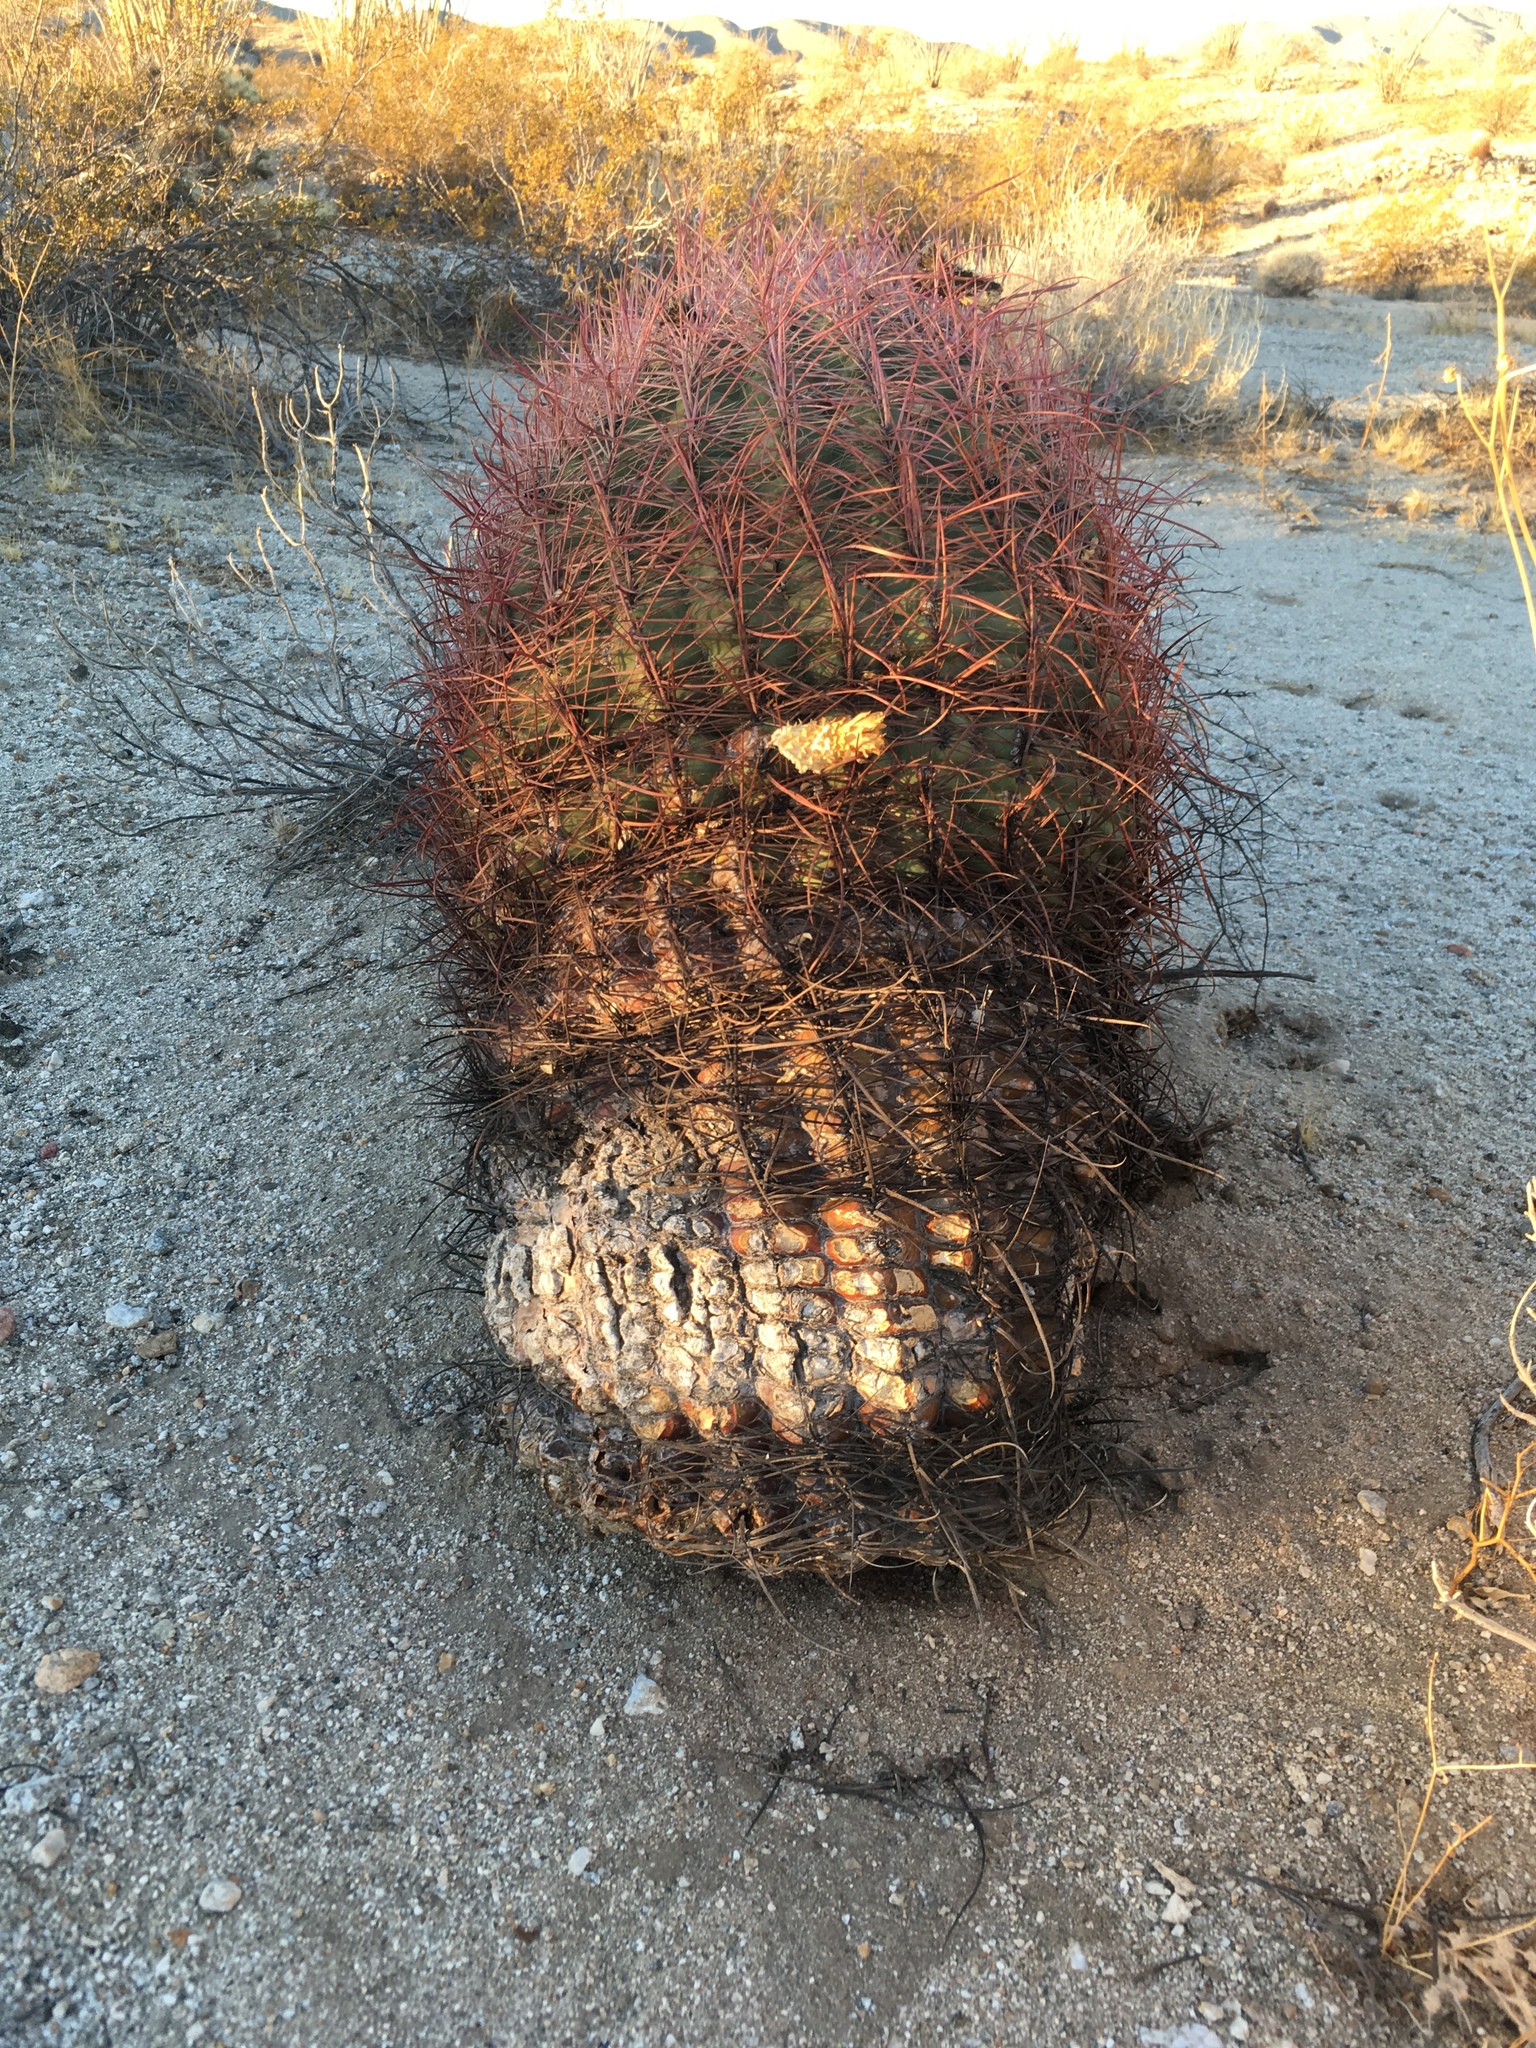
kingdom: Plantae
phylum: Tracheophyta
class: Magnoliopsida
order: Caryophyllales
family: Cactaceae
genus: Ferocactus
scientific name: Ferocactus cylindraceus
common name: California barrel cactus
